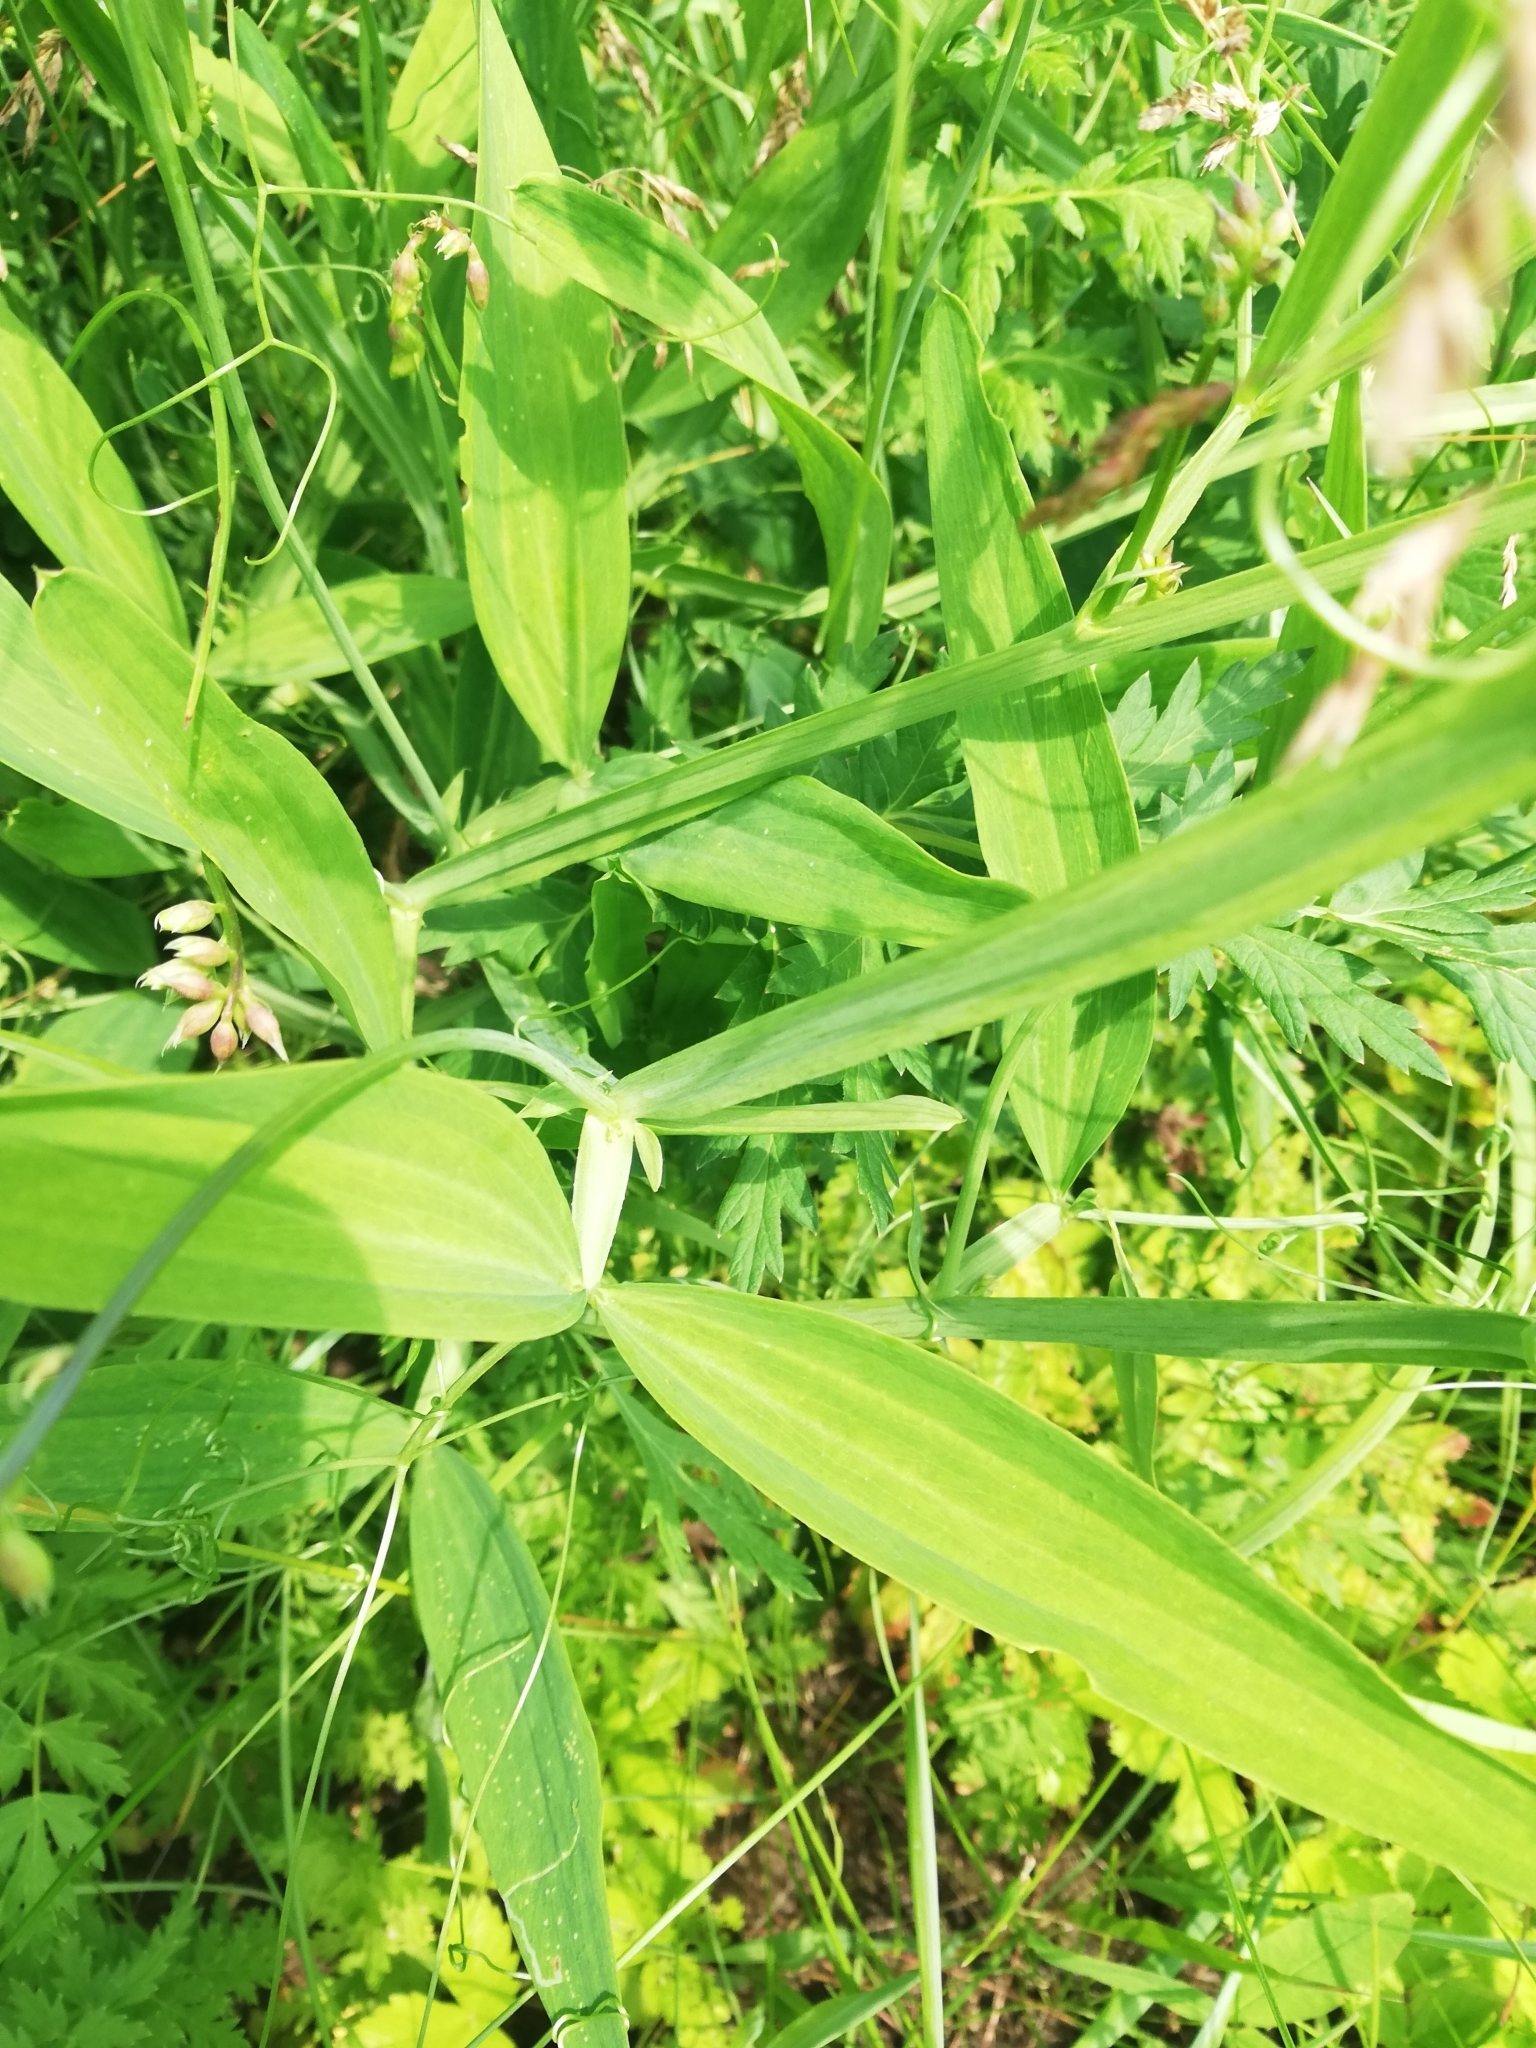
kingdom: Plantae
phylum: Tracheophyta
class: Magnoliopsida
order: Fabales
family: Fabaceae
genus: Lathyrus
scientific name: Lathyrus sylvestris
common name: Flat pea
